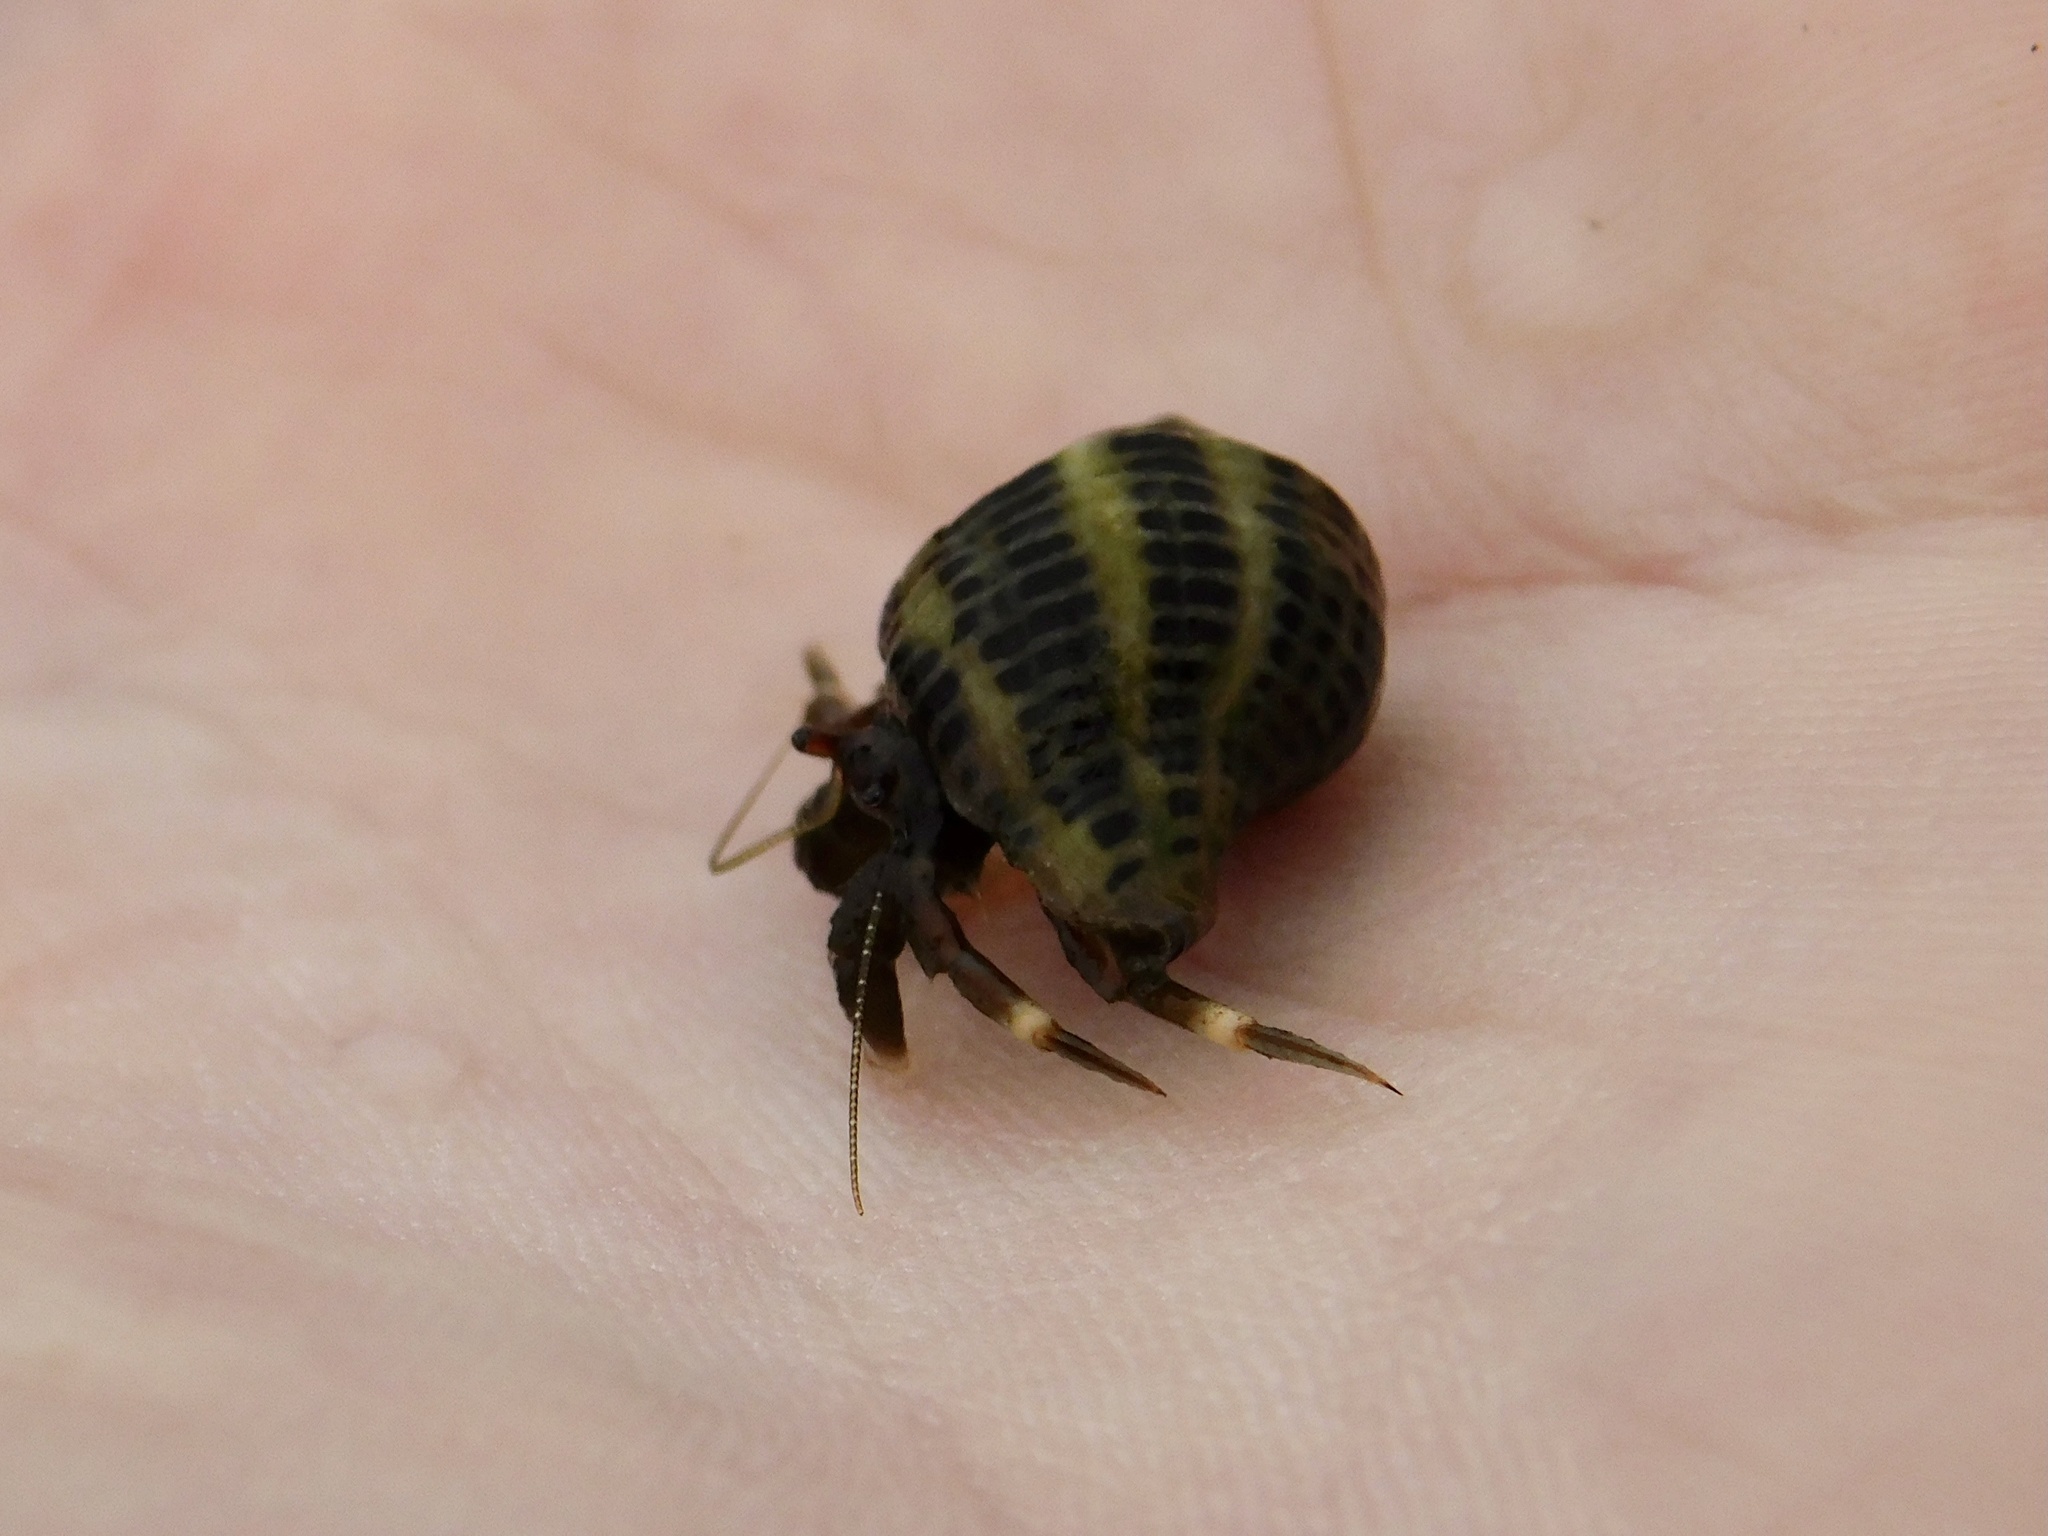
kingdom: Animalia
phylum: Arthropoda
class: Malacostraca
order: Decapoda
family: Paguridae
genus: Pagurus
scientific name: Pagurus venturensis
